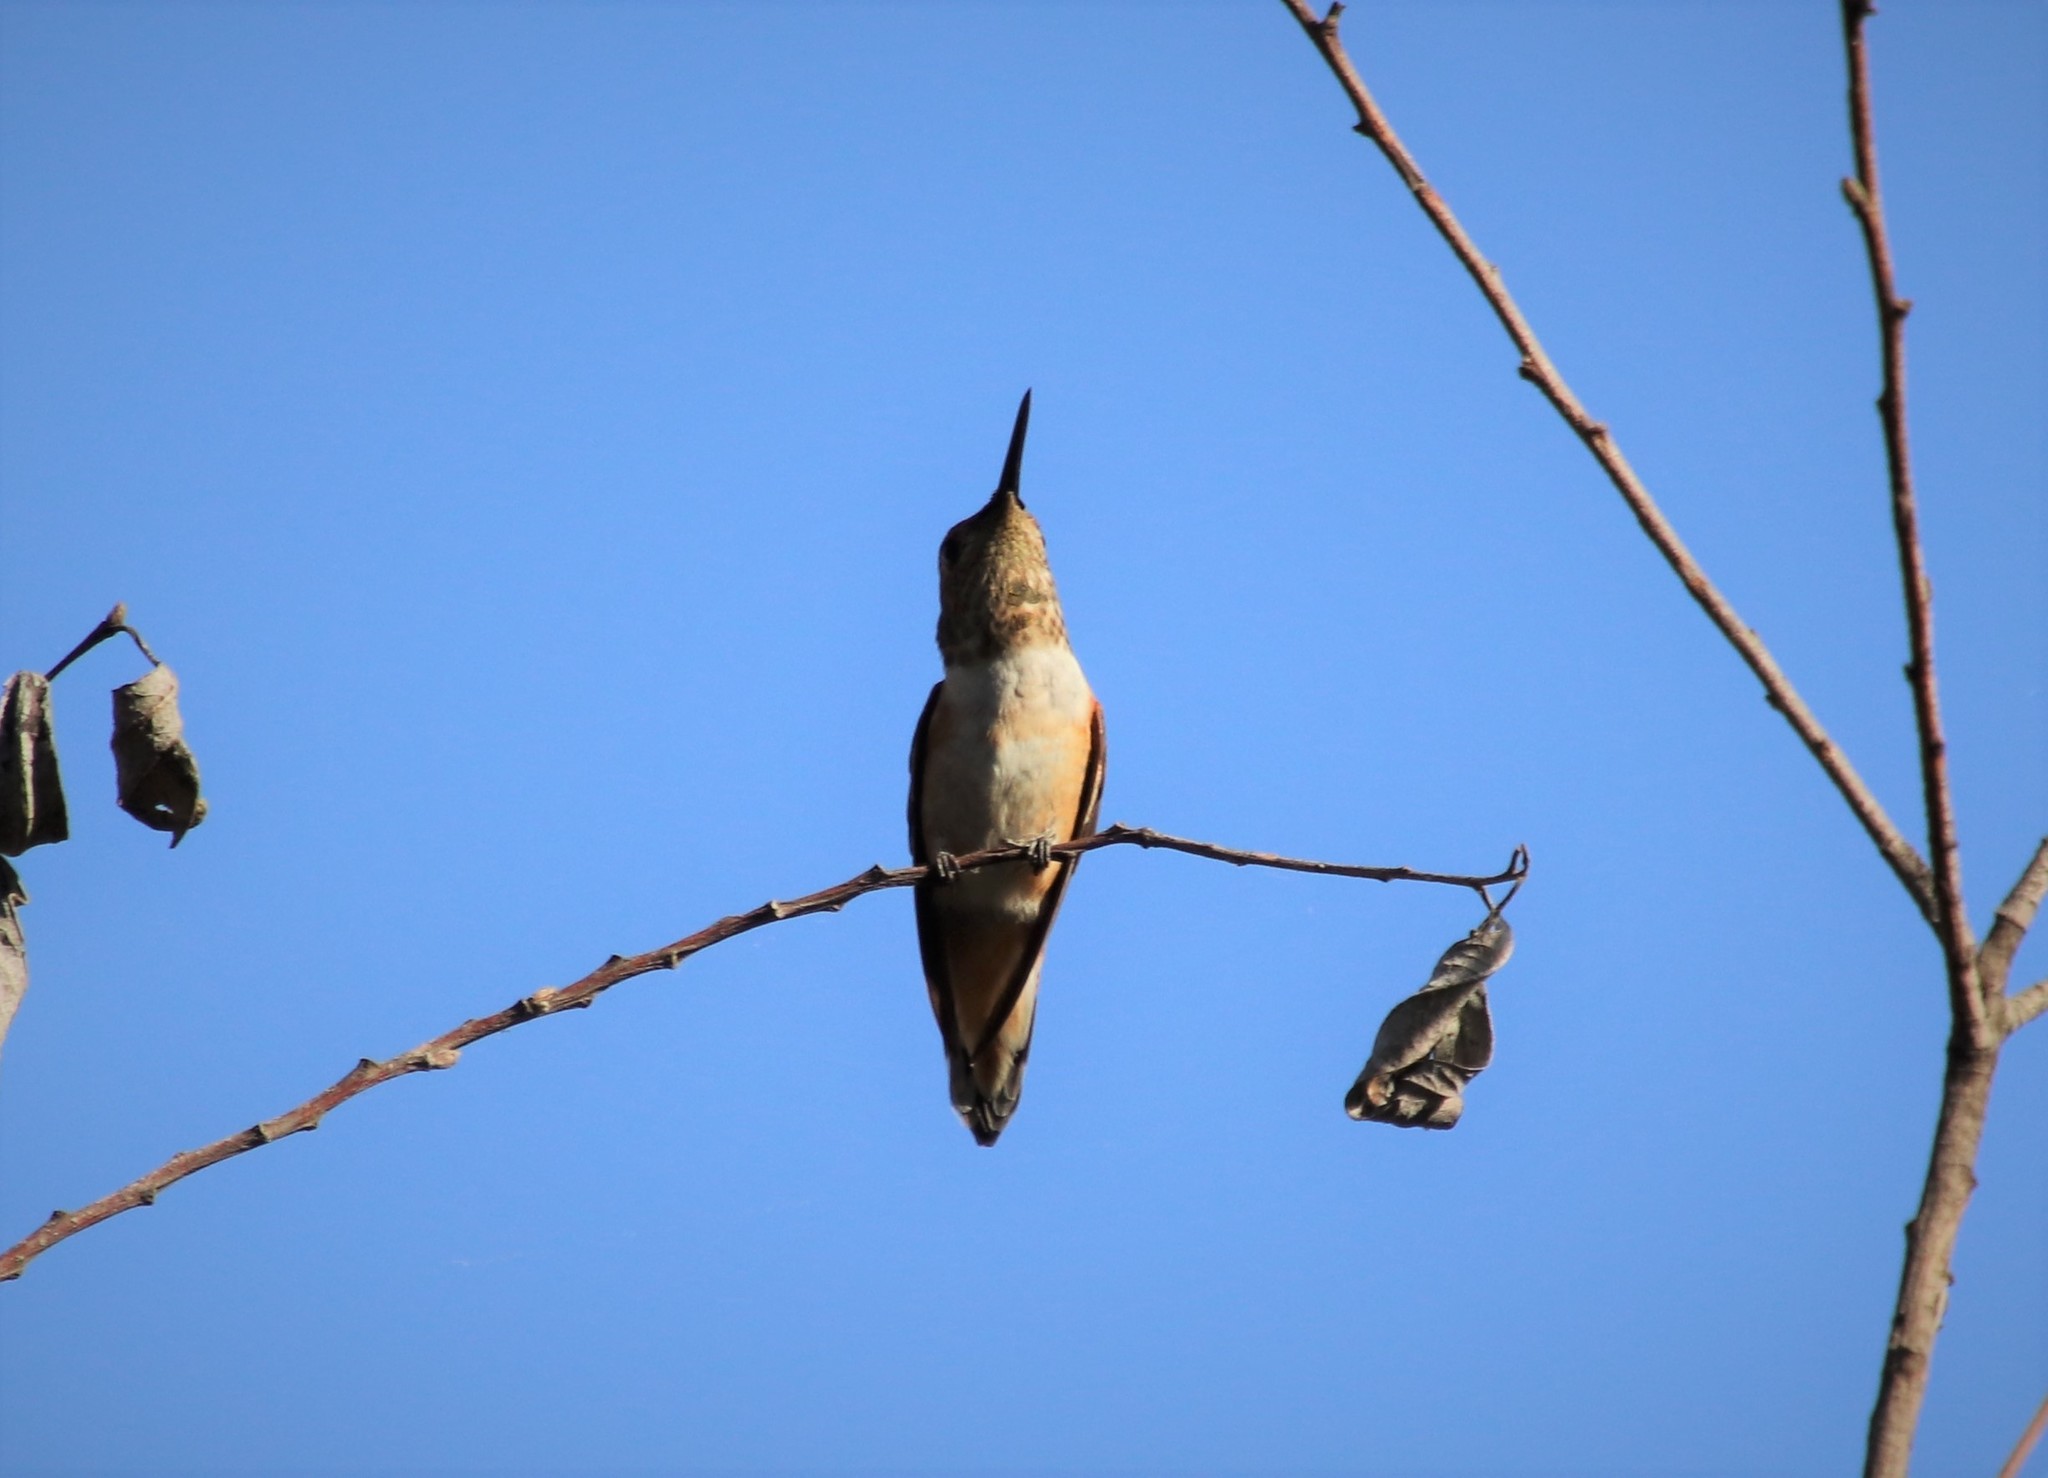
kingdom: Animalia
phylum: Chordata
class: Aves
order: Apodiformes
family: Trochilidae
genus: Selasphorus
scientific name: Selasphorus
